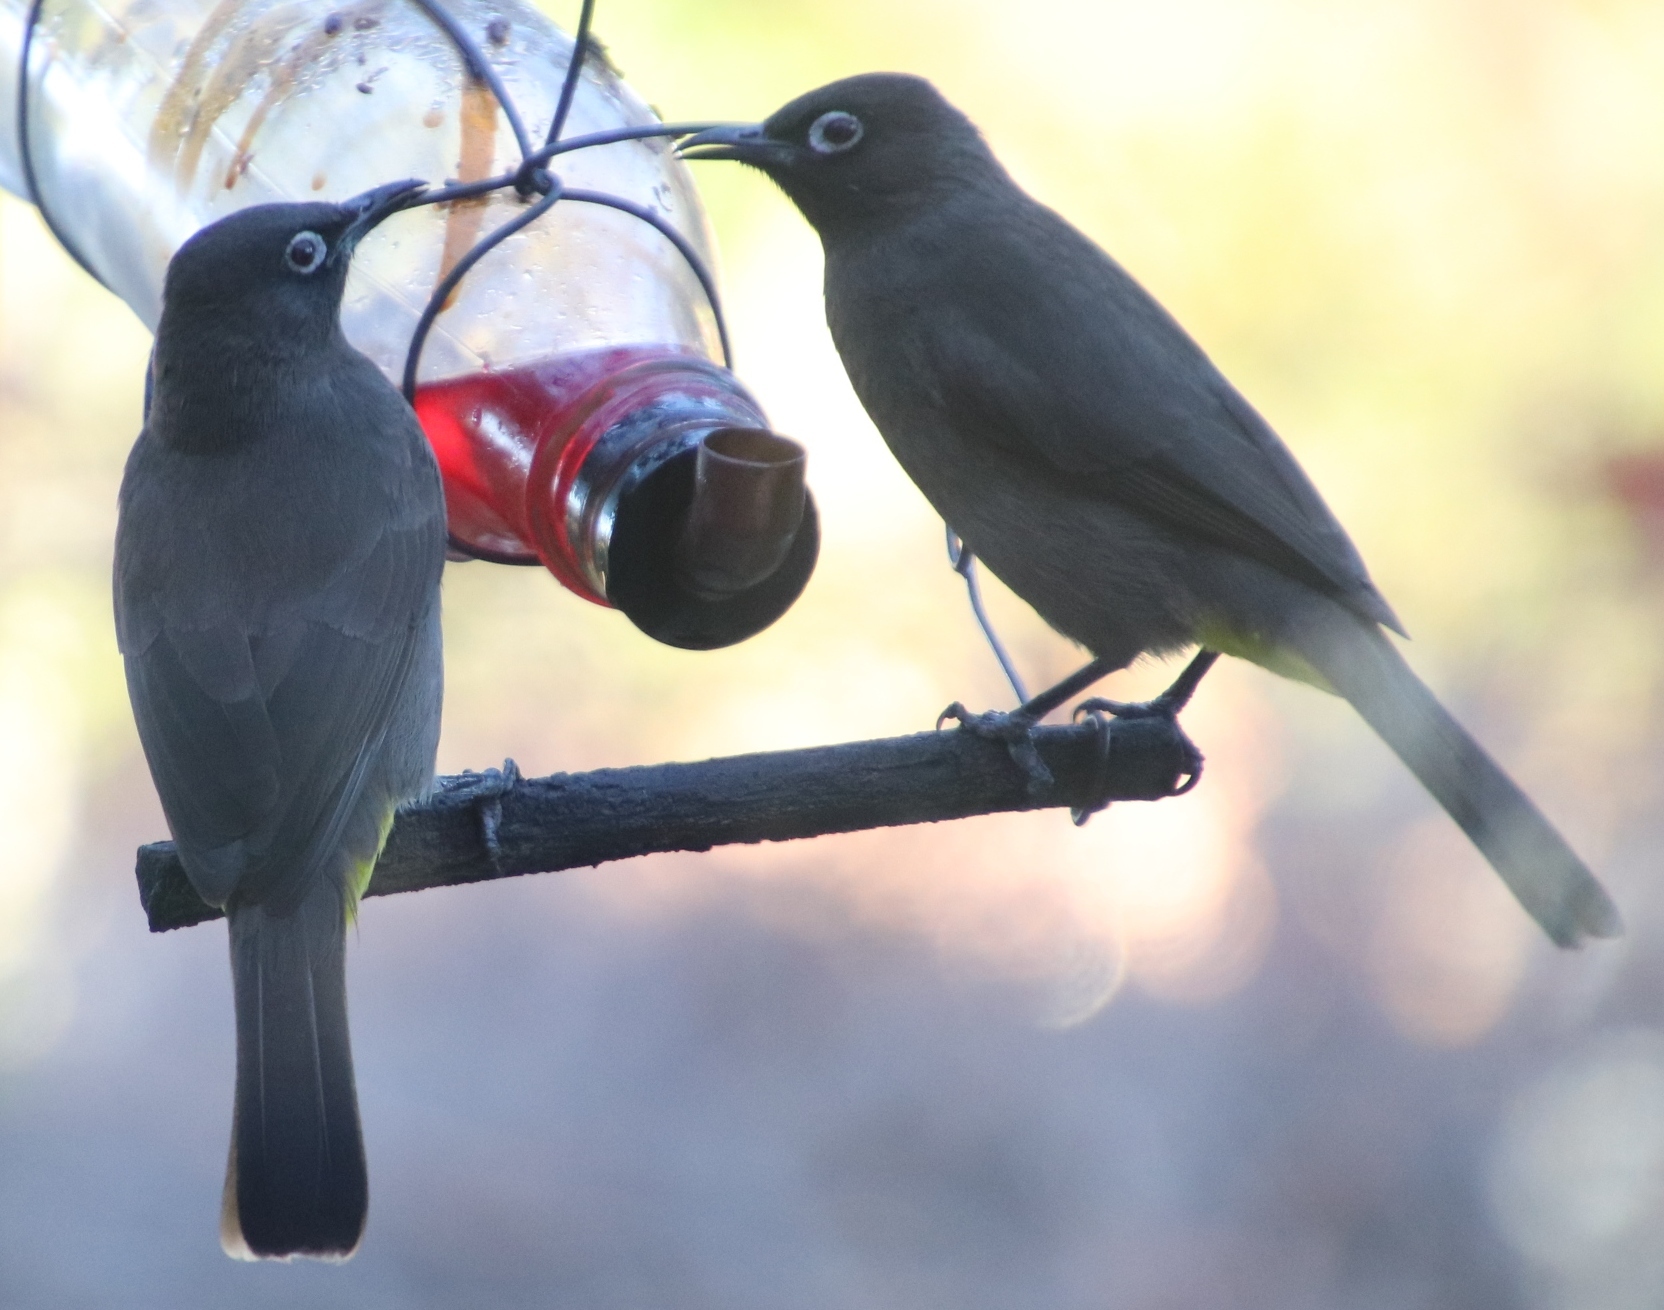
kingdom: Animalia
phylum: Chordata
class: Aves
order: Passeriformes
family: Pycnonotidae
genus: Pycnonotus
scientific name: Pycnonotus capensis
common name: Cape bulbul
